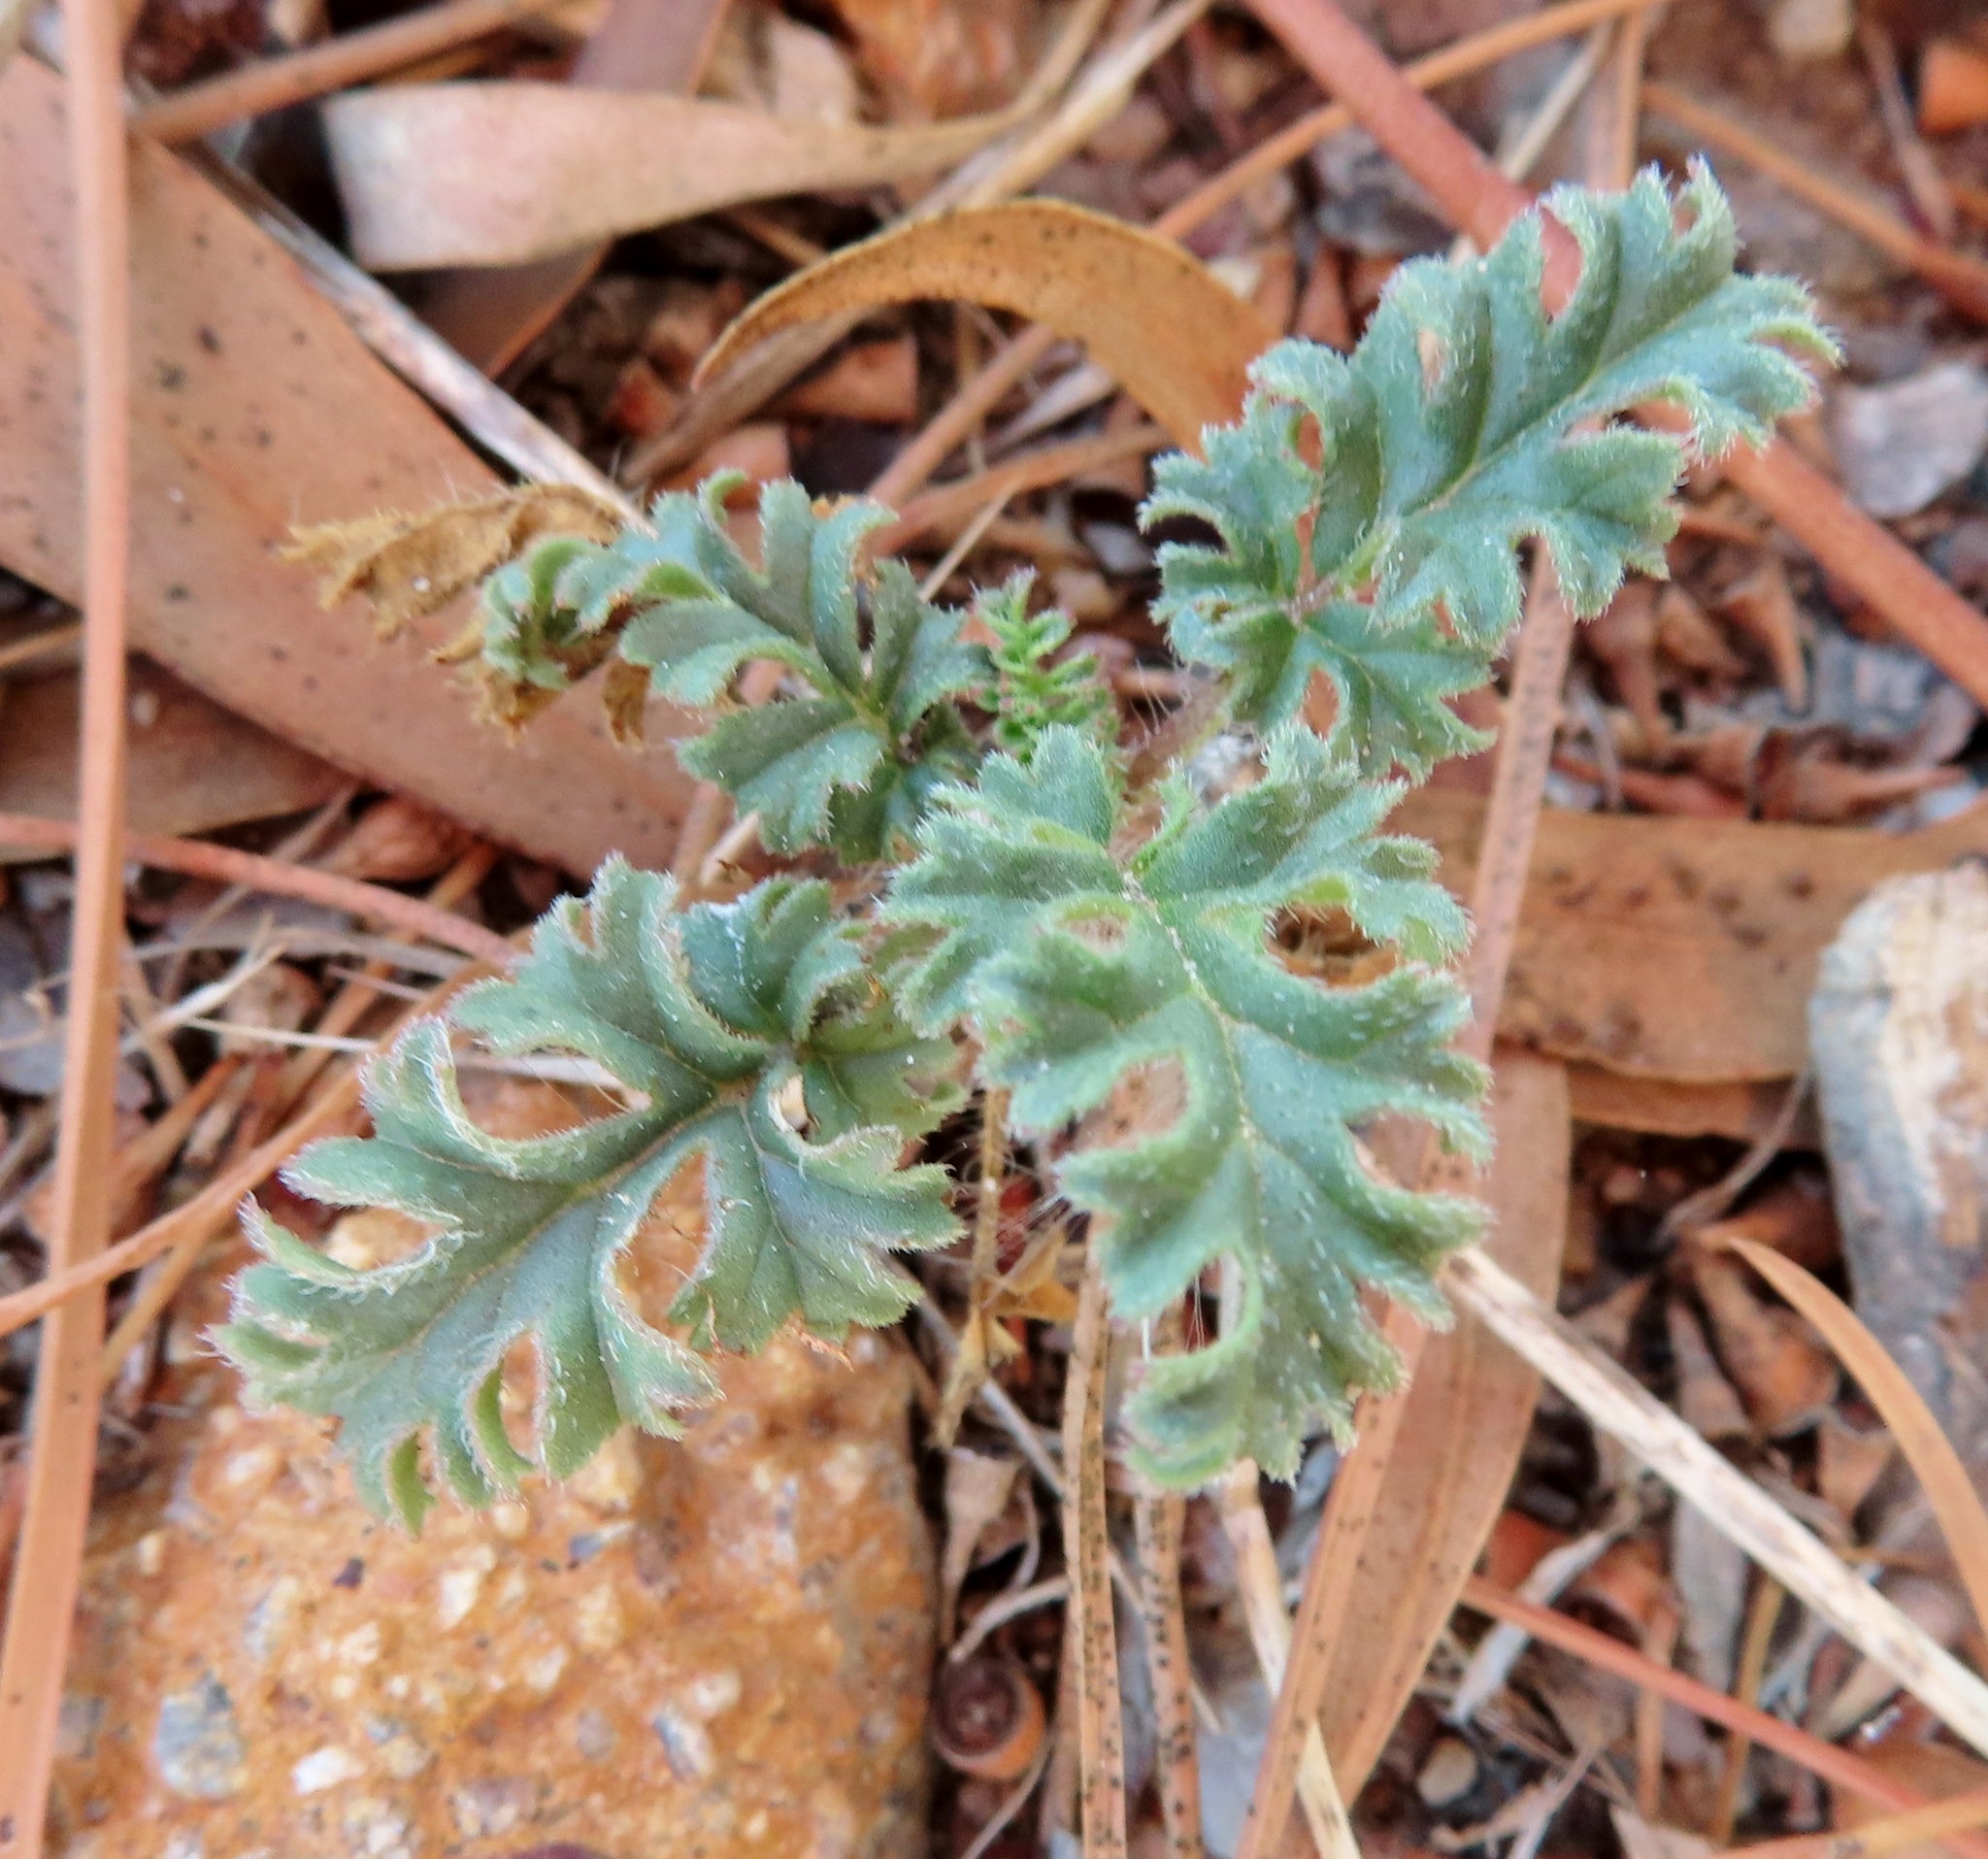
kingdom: Plantae
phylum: Tracheophyta
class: Magnoliopsida
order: Geraniales
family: Geraniaceae
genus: Pelargonium
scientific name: Pelargonium myrrhifolium
